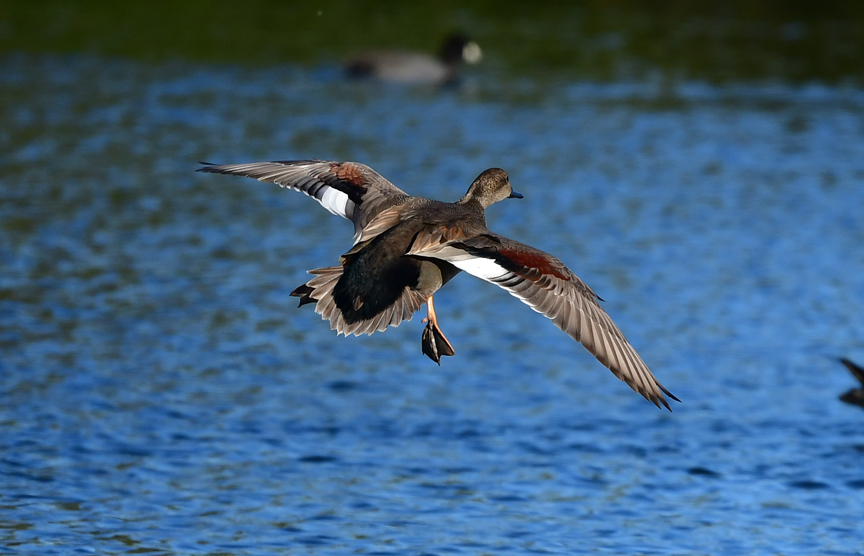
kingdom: Animalia
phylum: Chordata
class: Aves
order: Anseriformes
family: Anatidae
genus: Mareca
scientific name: Mareca strepera
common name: Gadwall
